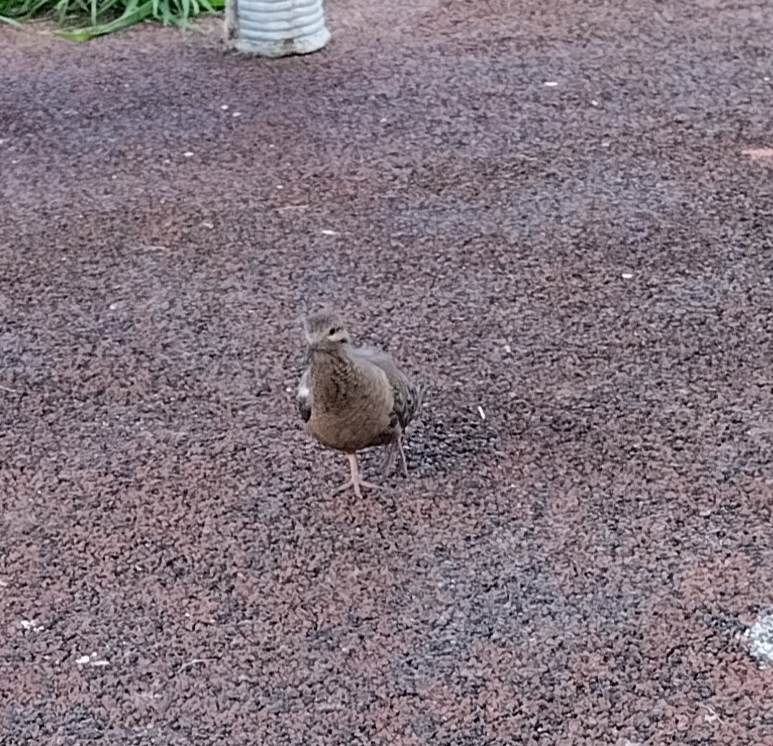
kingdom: Animalia
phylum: Chordata
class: Aves
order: Columbiformes
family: Columbidae
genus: Zenaida
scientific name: Zenaida auriculata
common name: Eared dove
